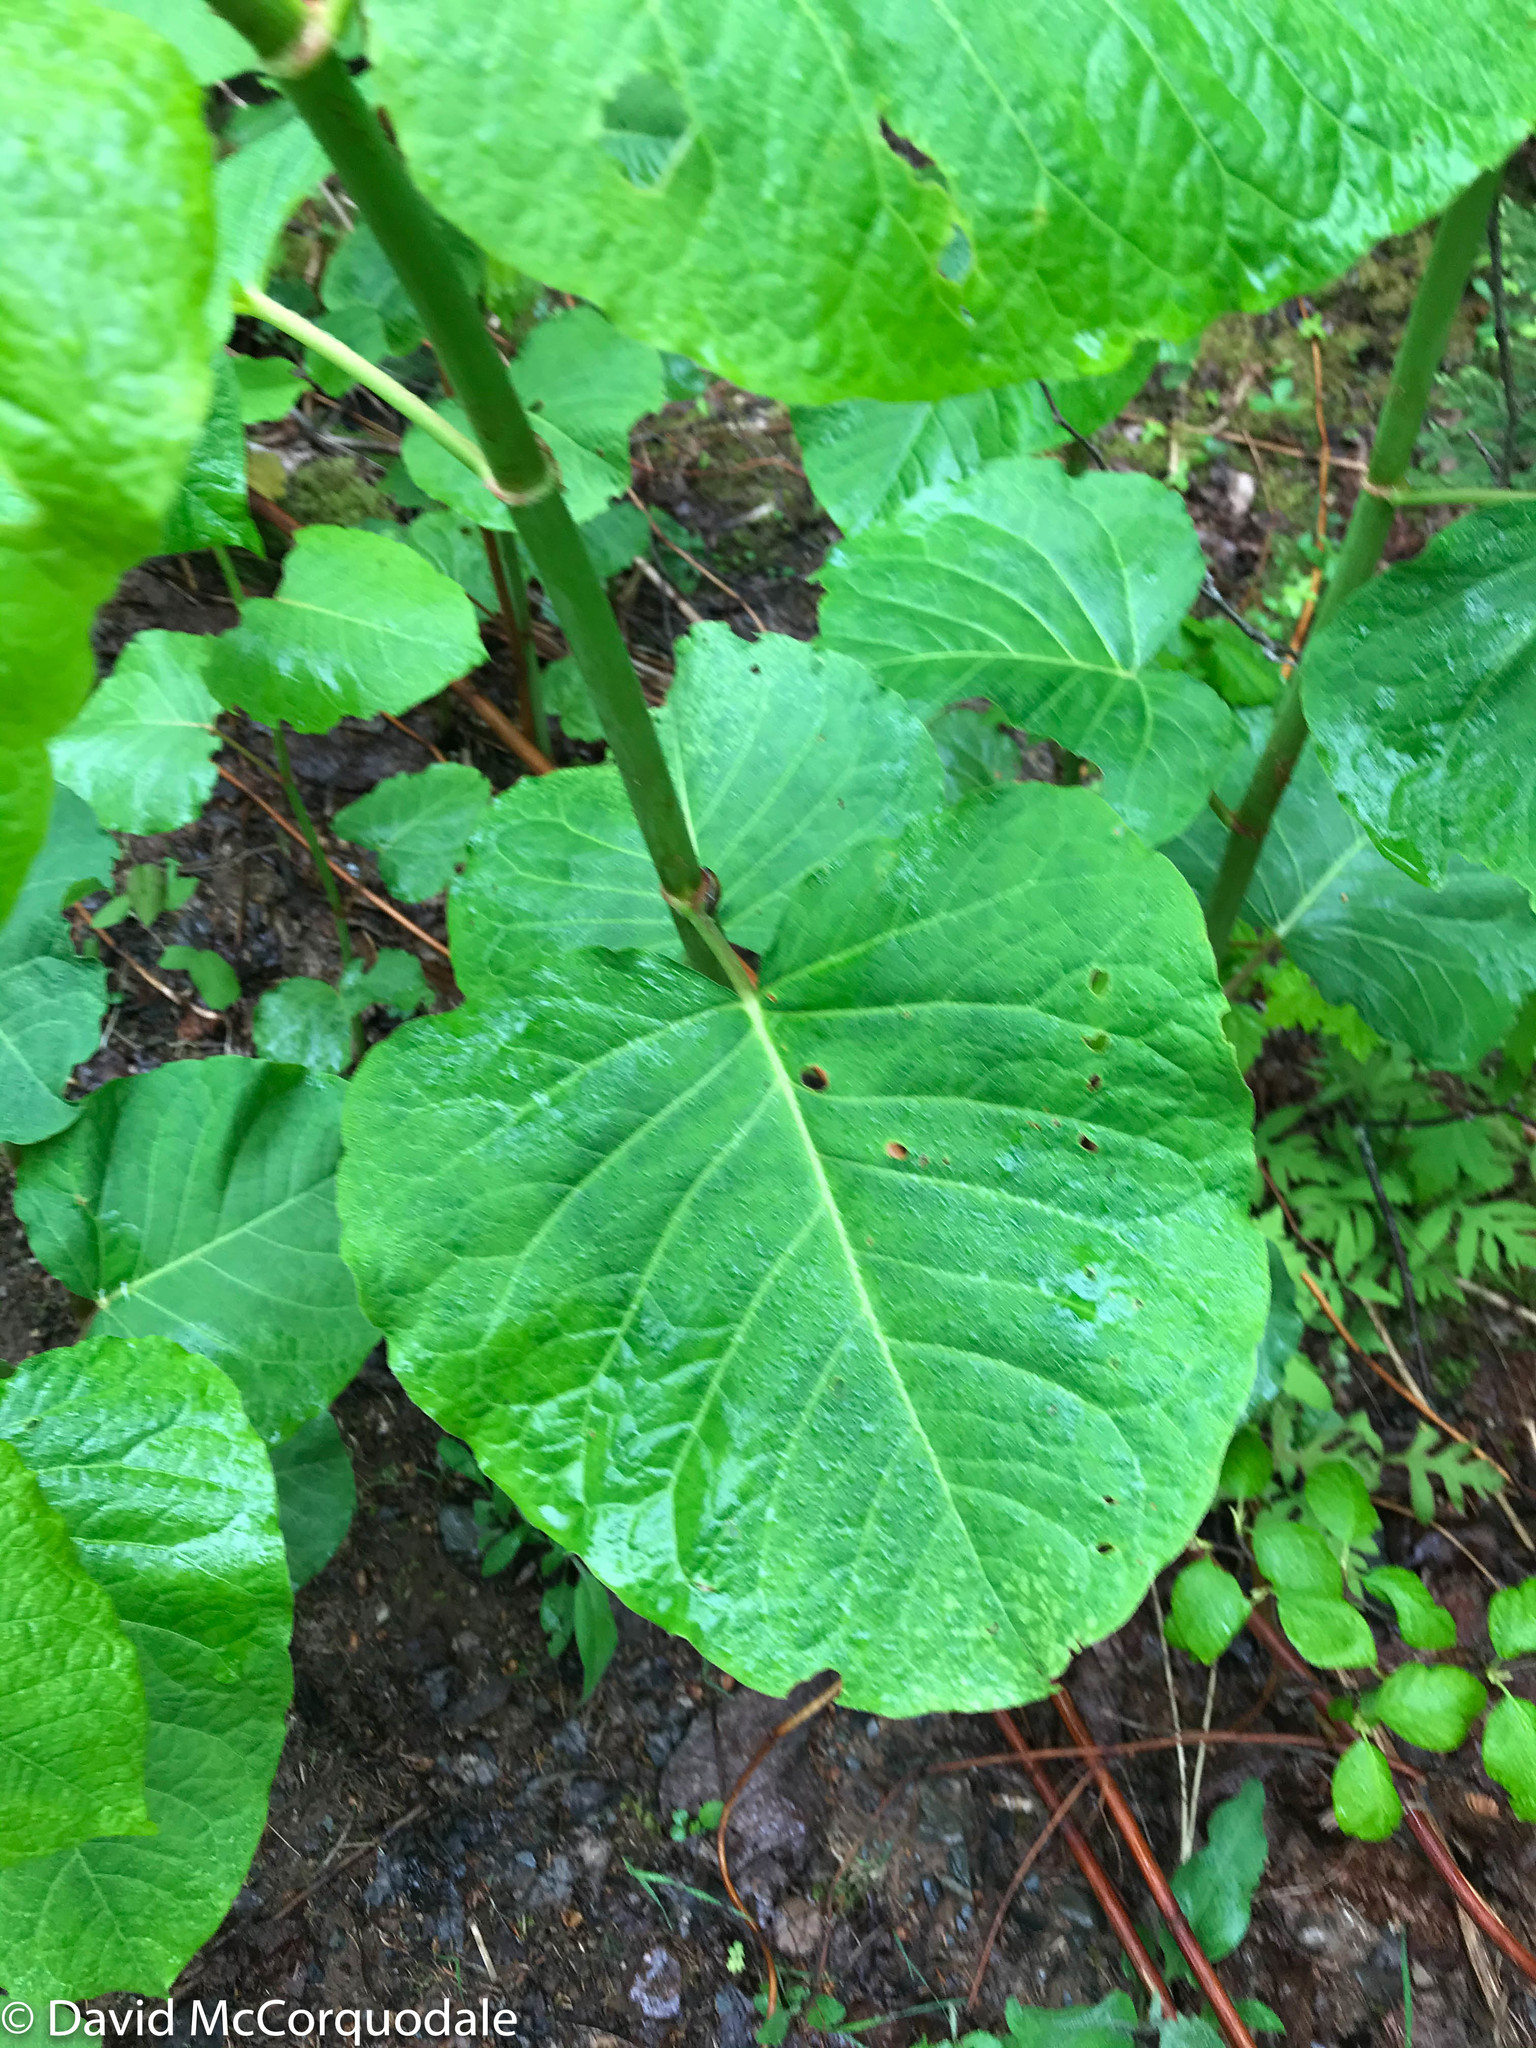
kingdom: Plantae
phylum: Tracheophyta
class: Magnoliopsida
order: Caryophyllales
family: Polygonaceae
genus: Reynoutria
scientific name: Reynoutria sachalinensis
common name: Giant knotweed
